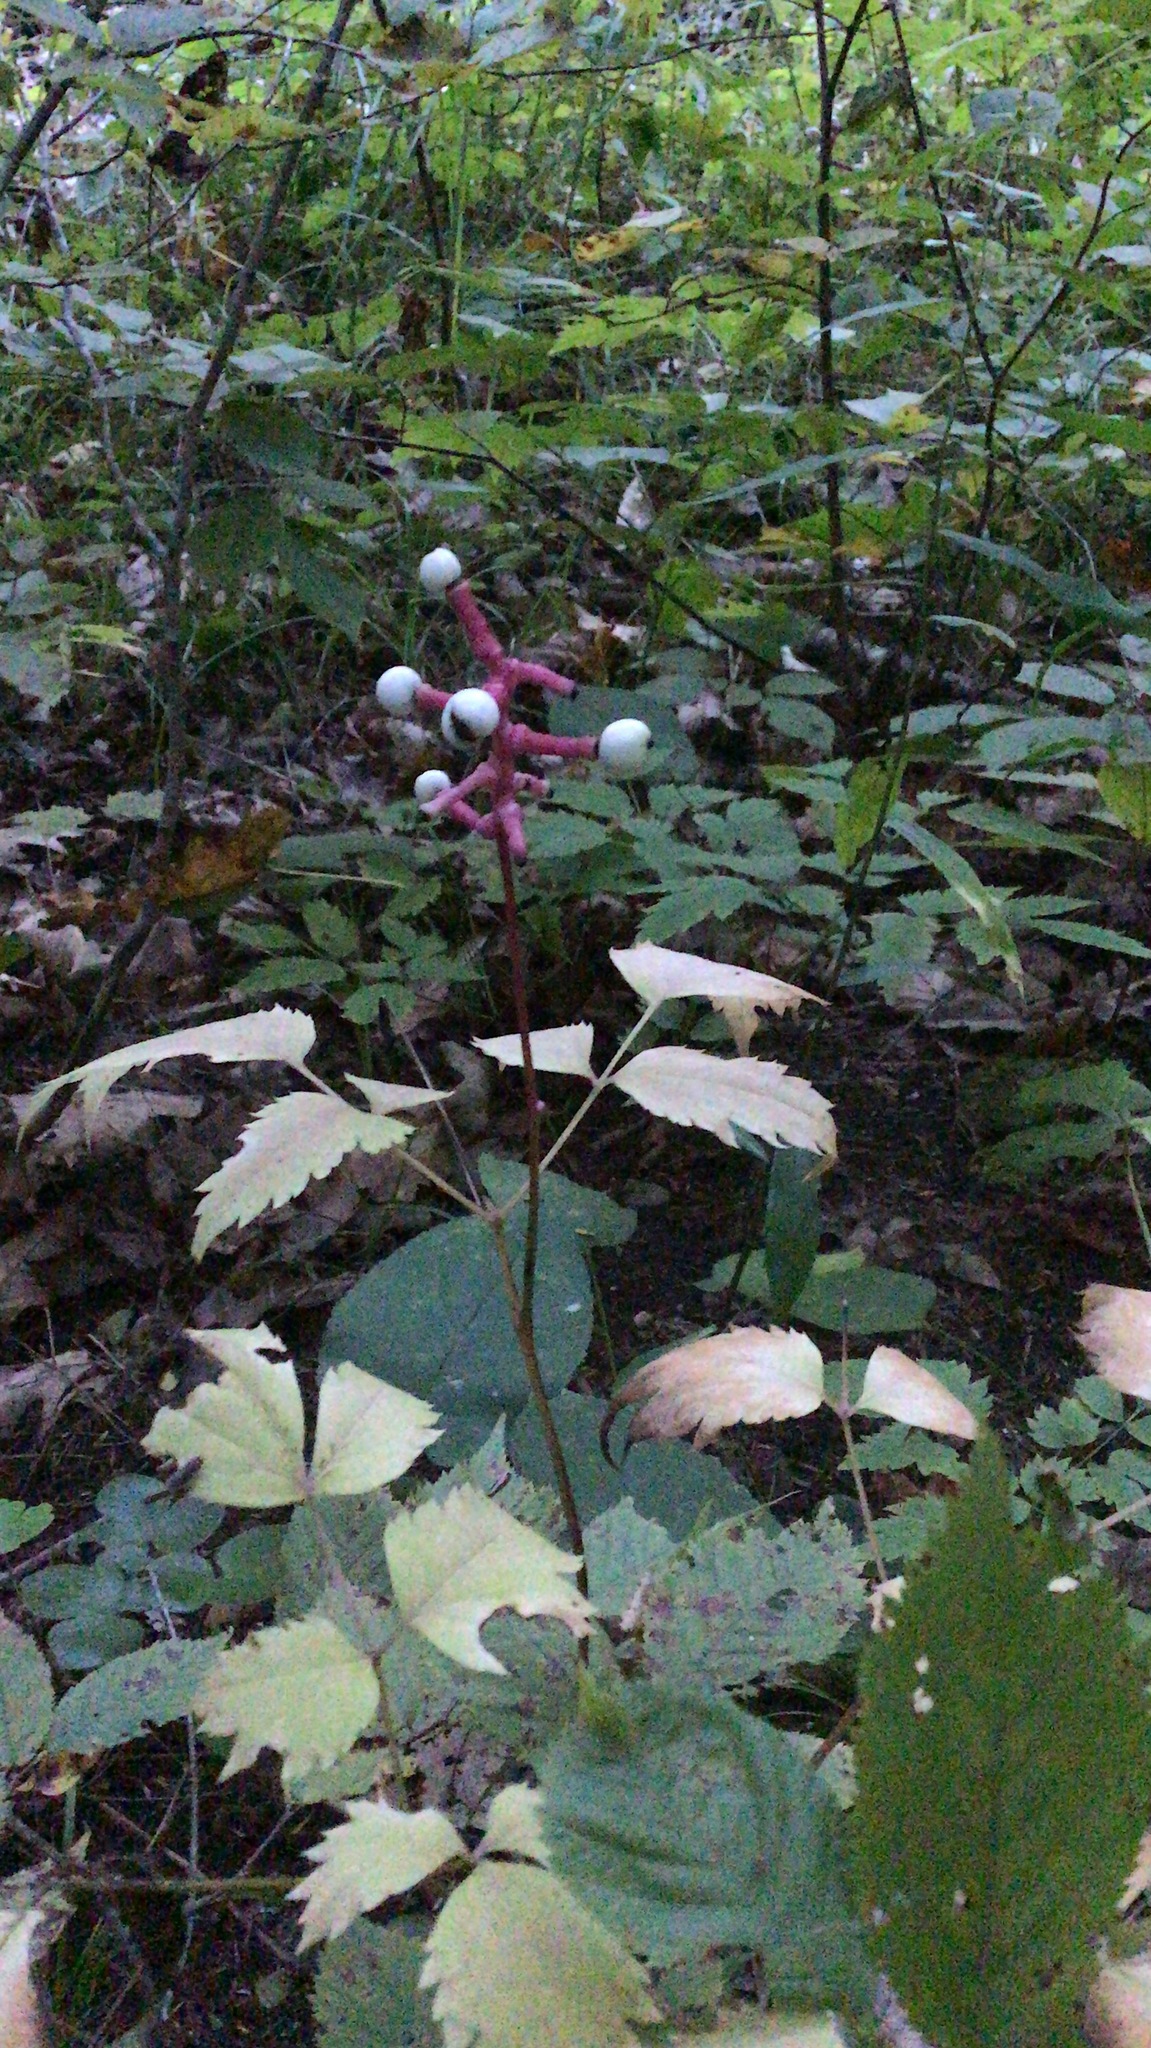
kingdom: Plantae
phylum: Tracheophyta
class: Magnoliopsida
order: Ranunculales
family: Ranunculaceae
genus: Actaea
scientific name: Actaea pachypoda
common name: Doll's-eyes
